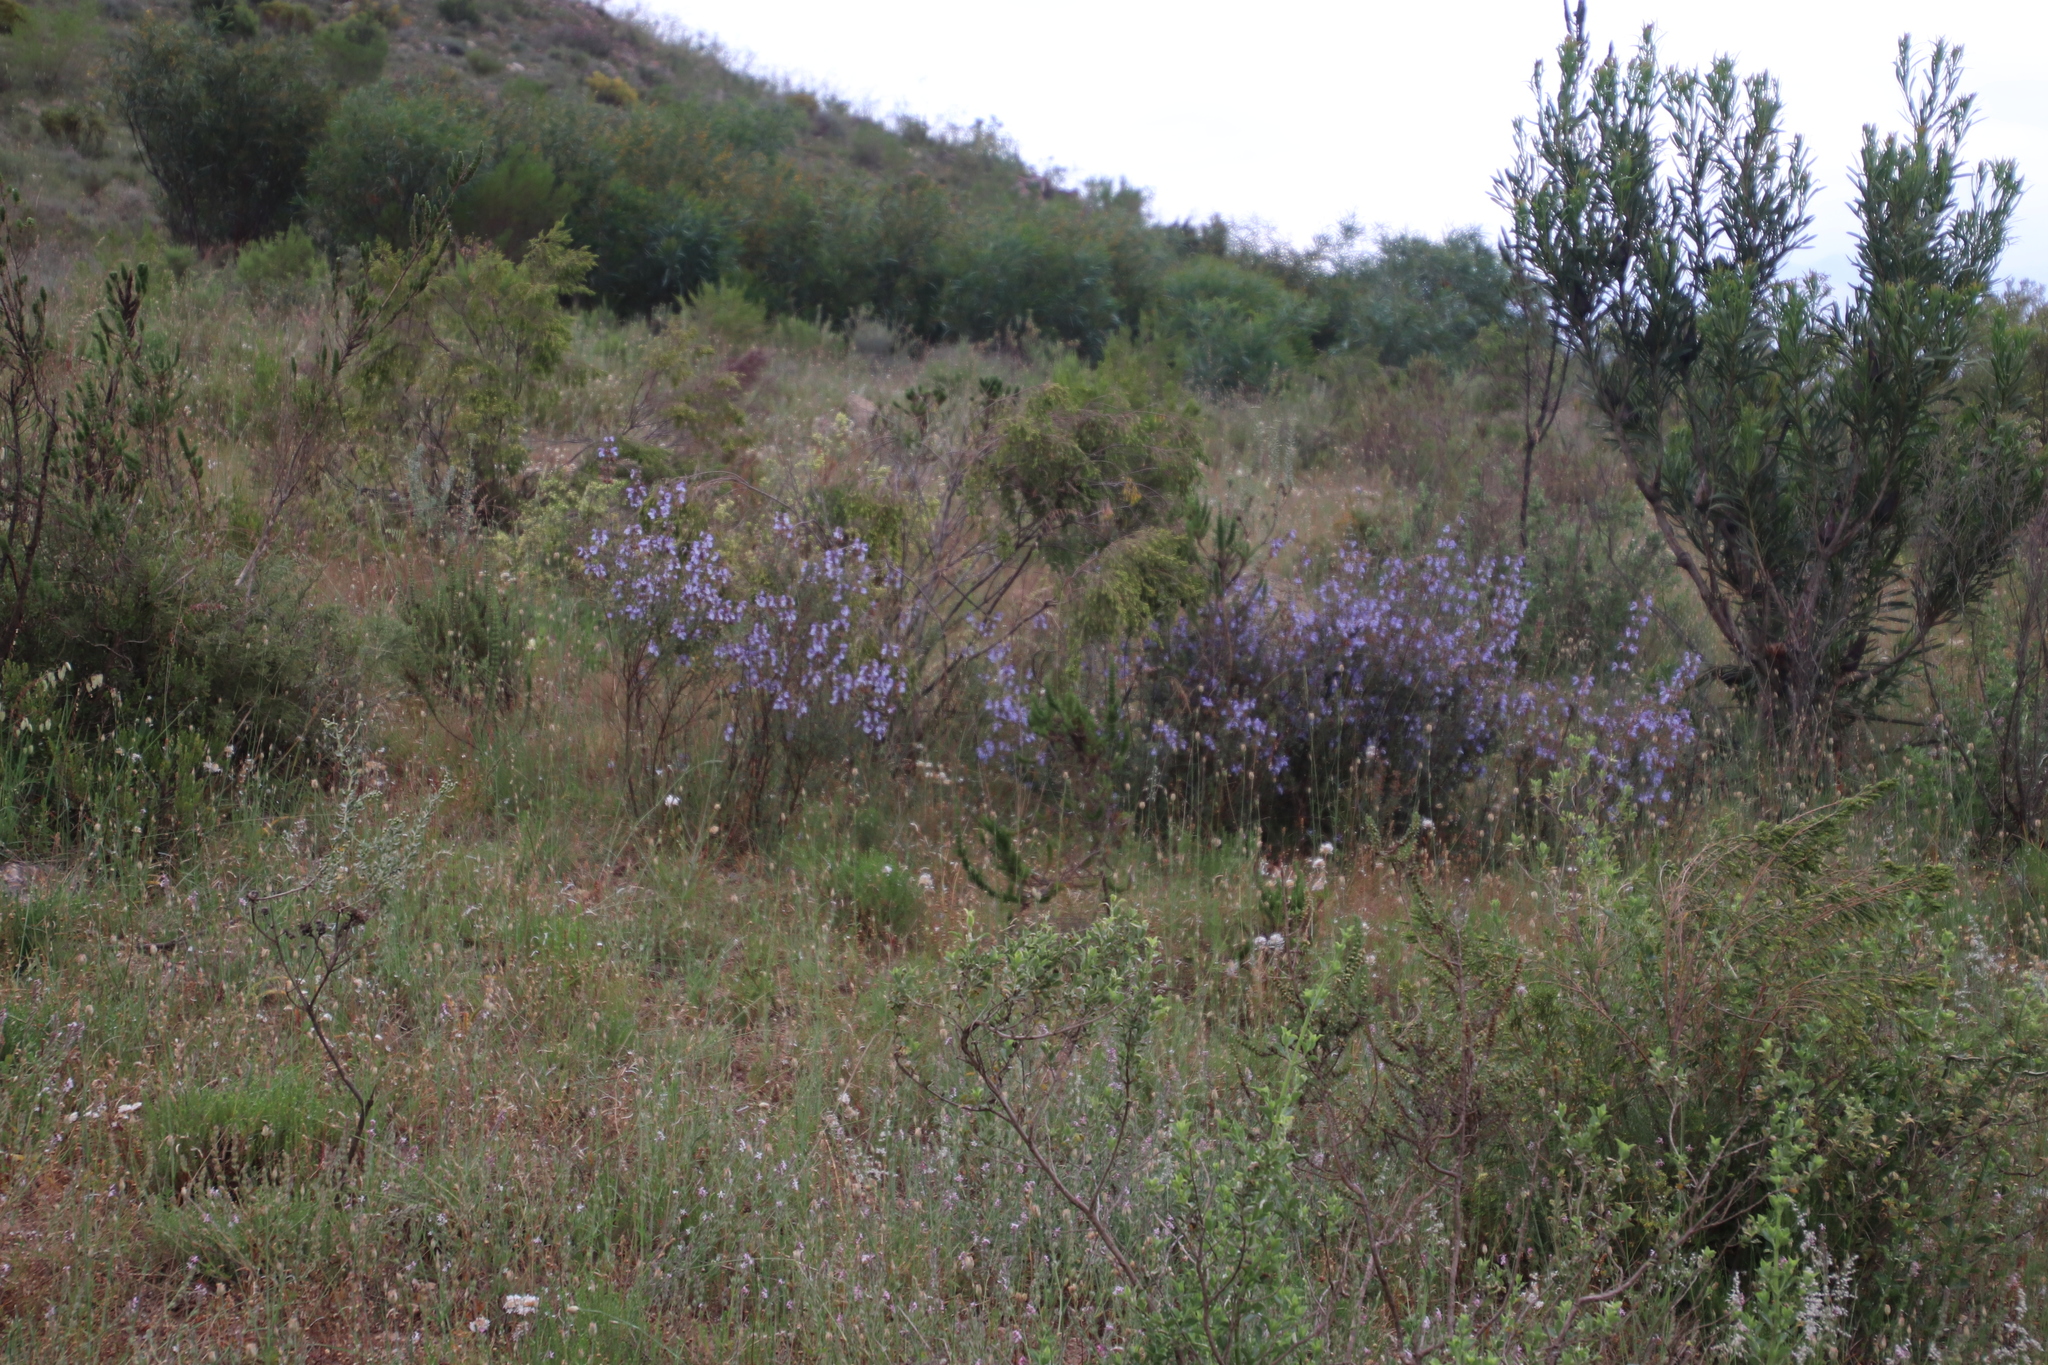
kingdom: Plantae
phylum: Tracheophyta
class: Magnoliopsida
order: Lamiales
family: Lamiaceae
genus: Salvia
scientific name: Salvia africana
